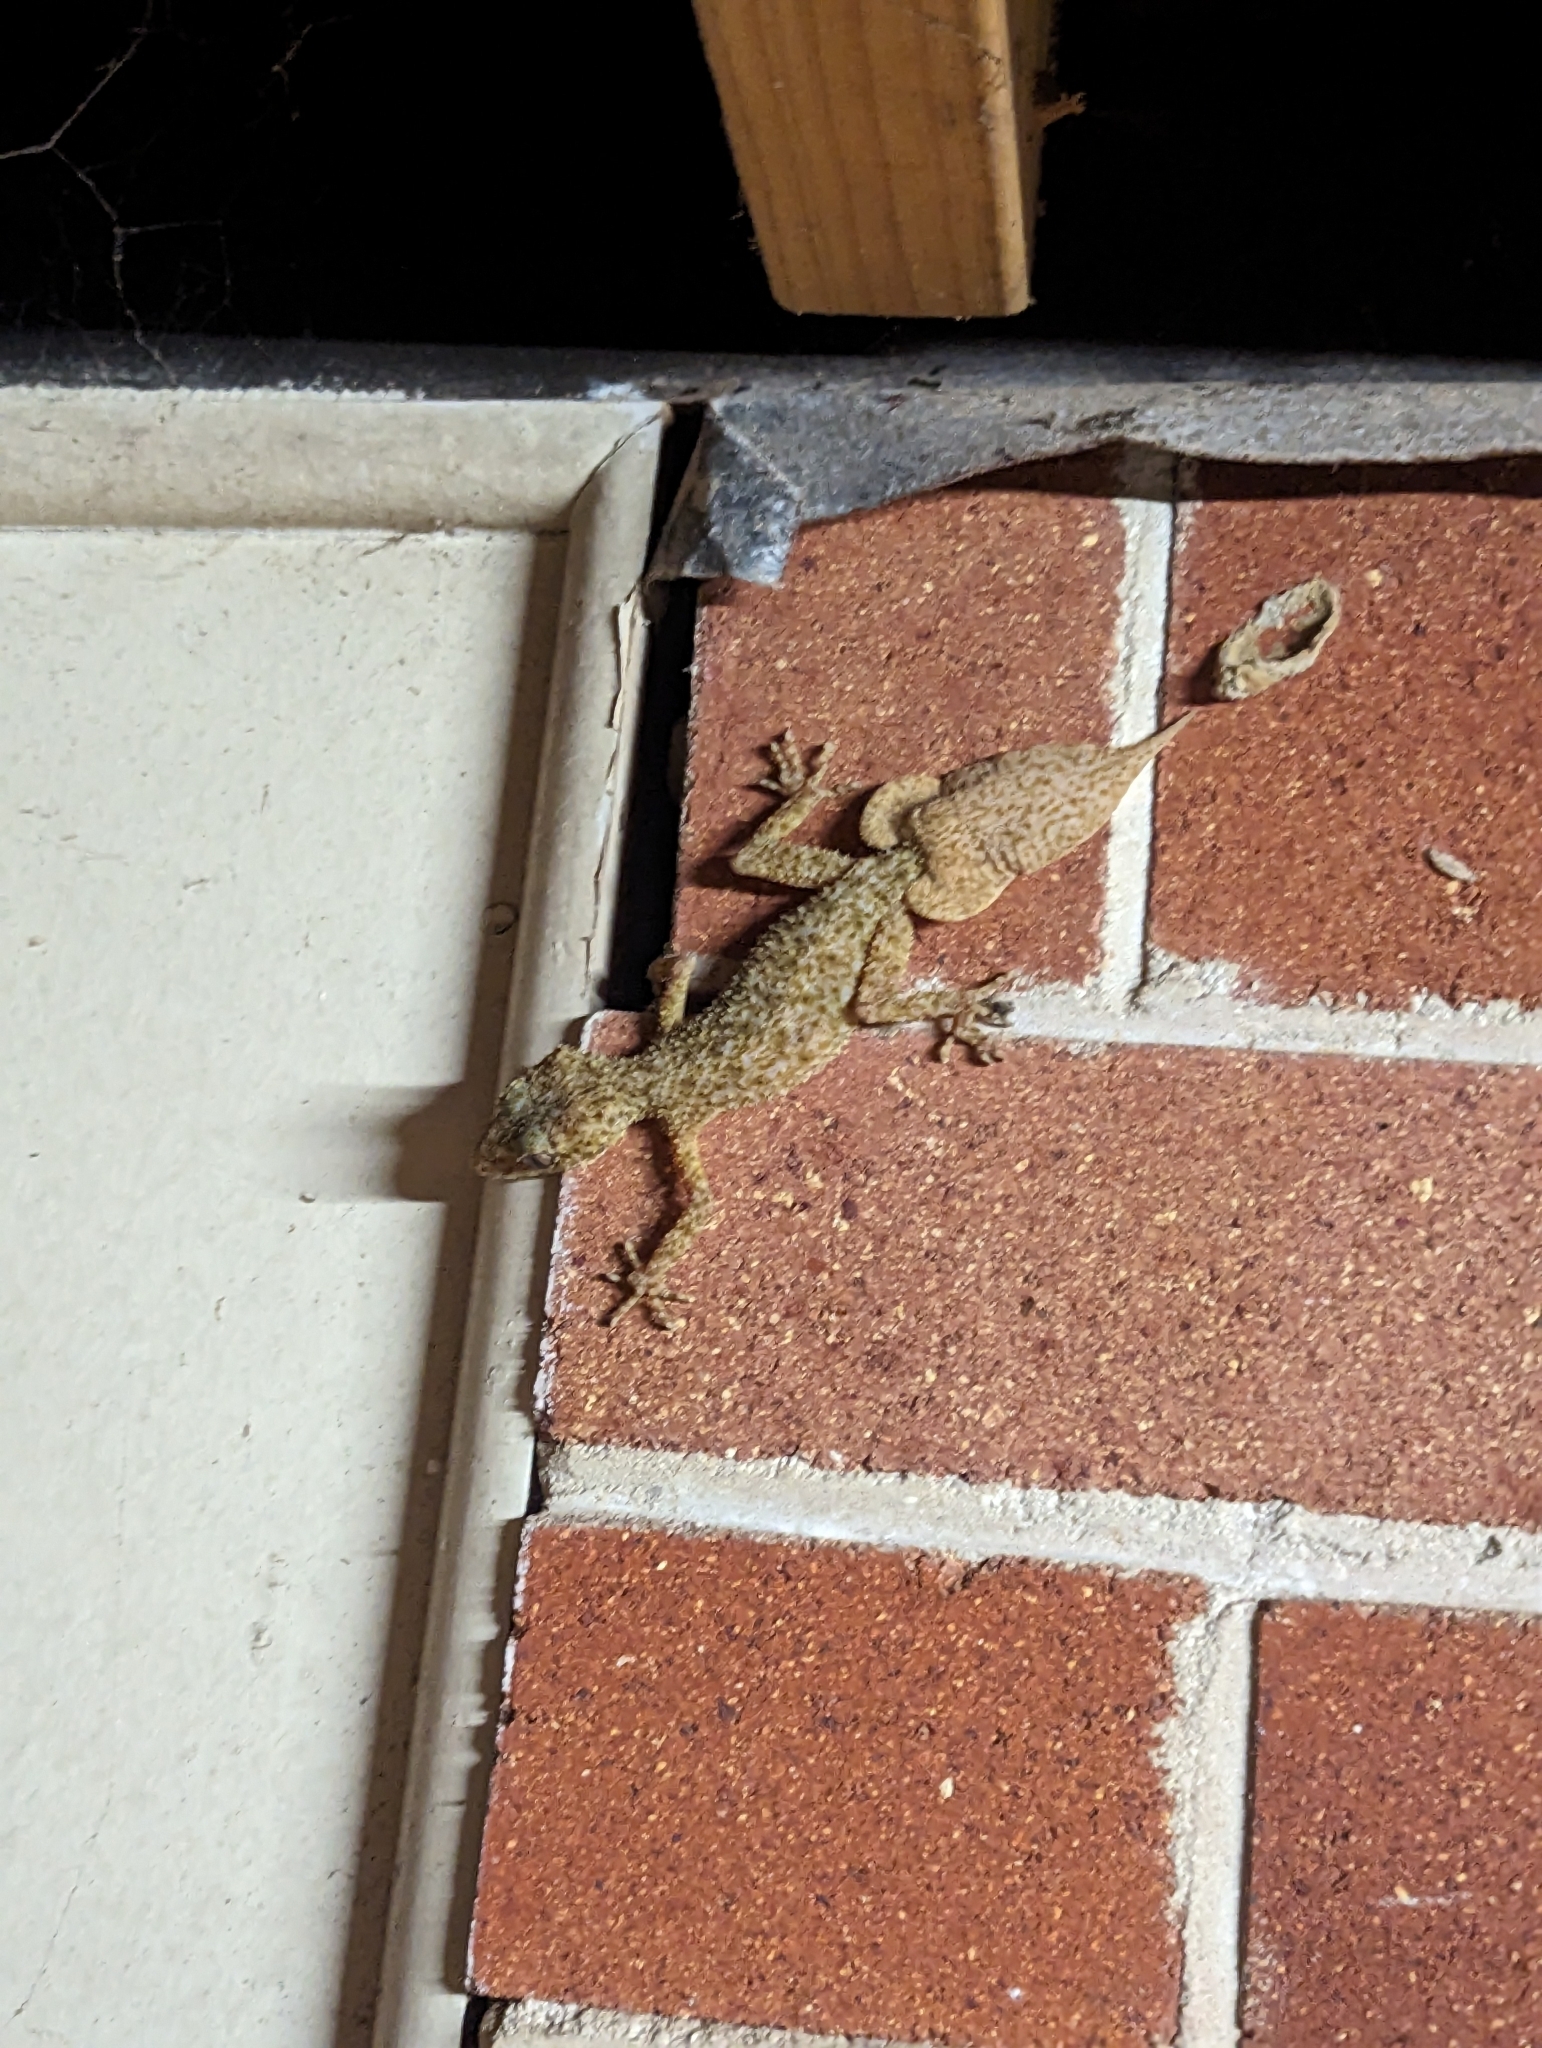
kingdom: Animalia
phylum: Chordata
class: Squamata
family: Carphodactylidae
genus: Phyllurus
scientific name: Phyllurus platurus
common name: Broad-tailed gecko
